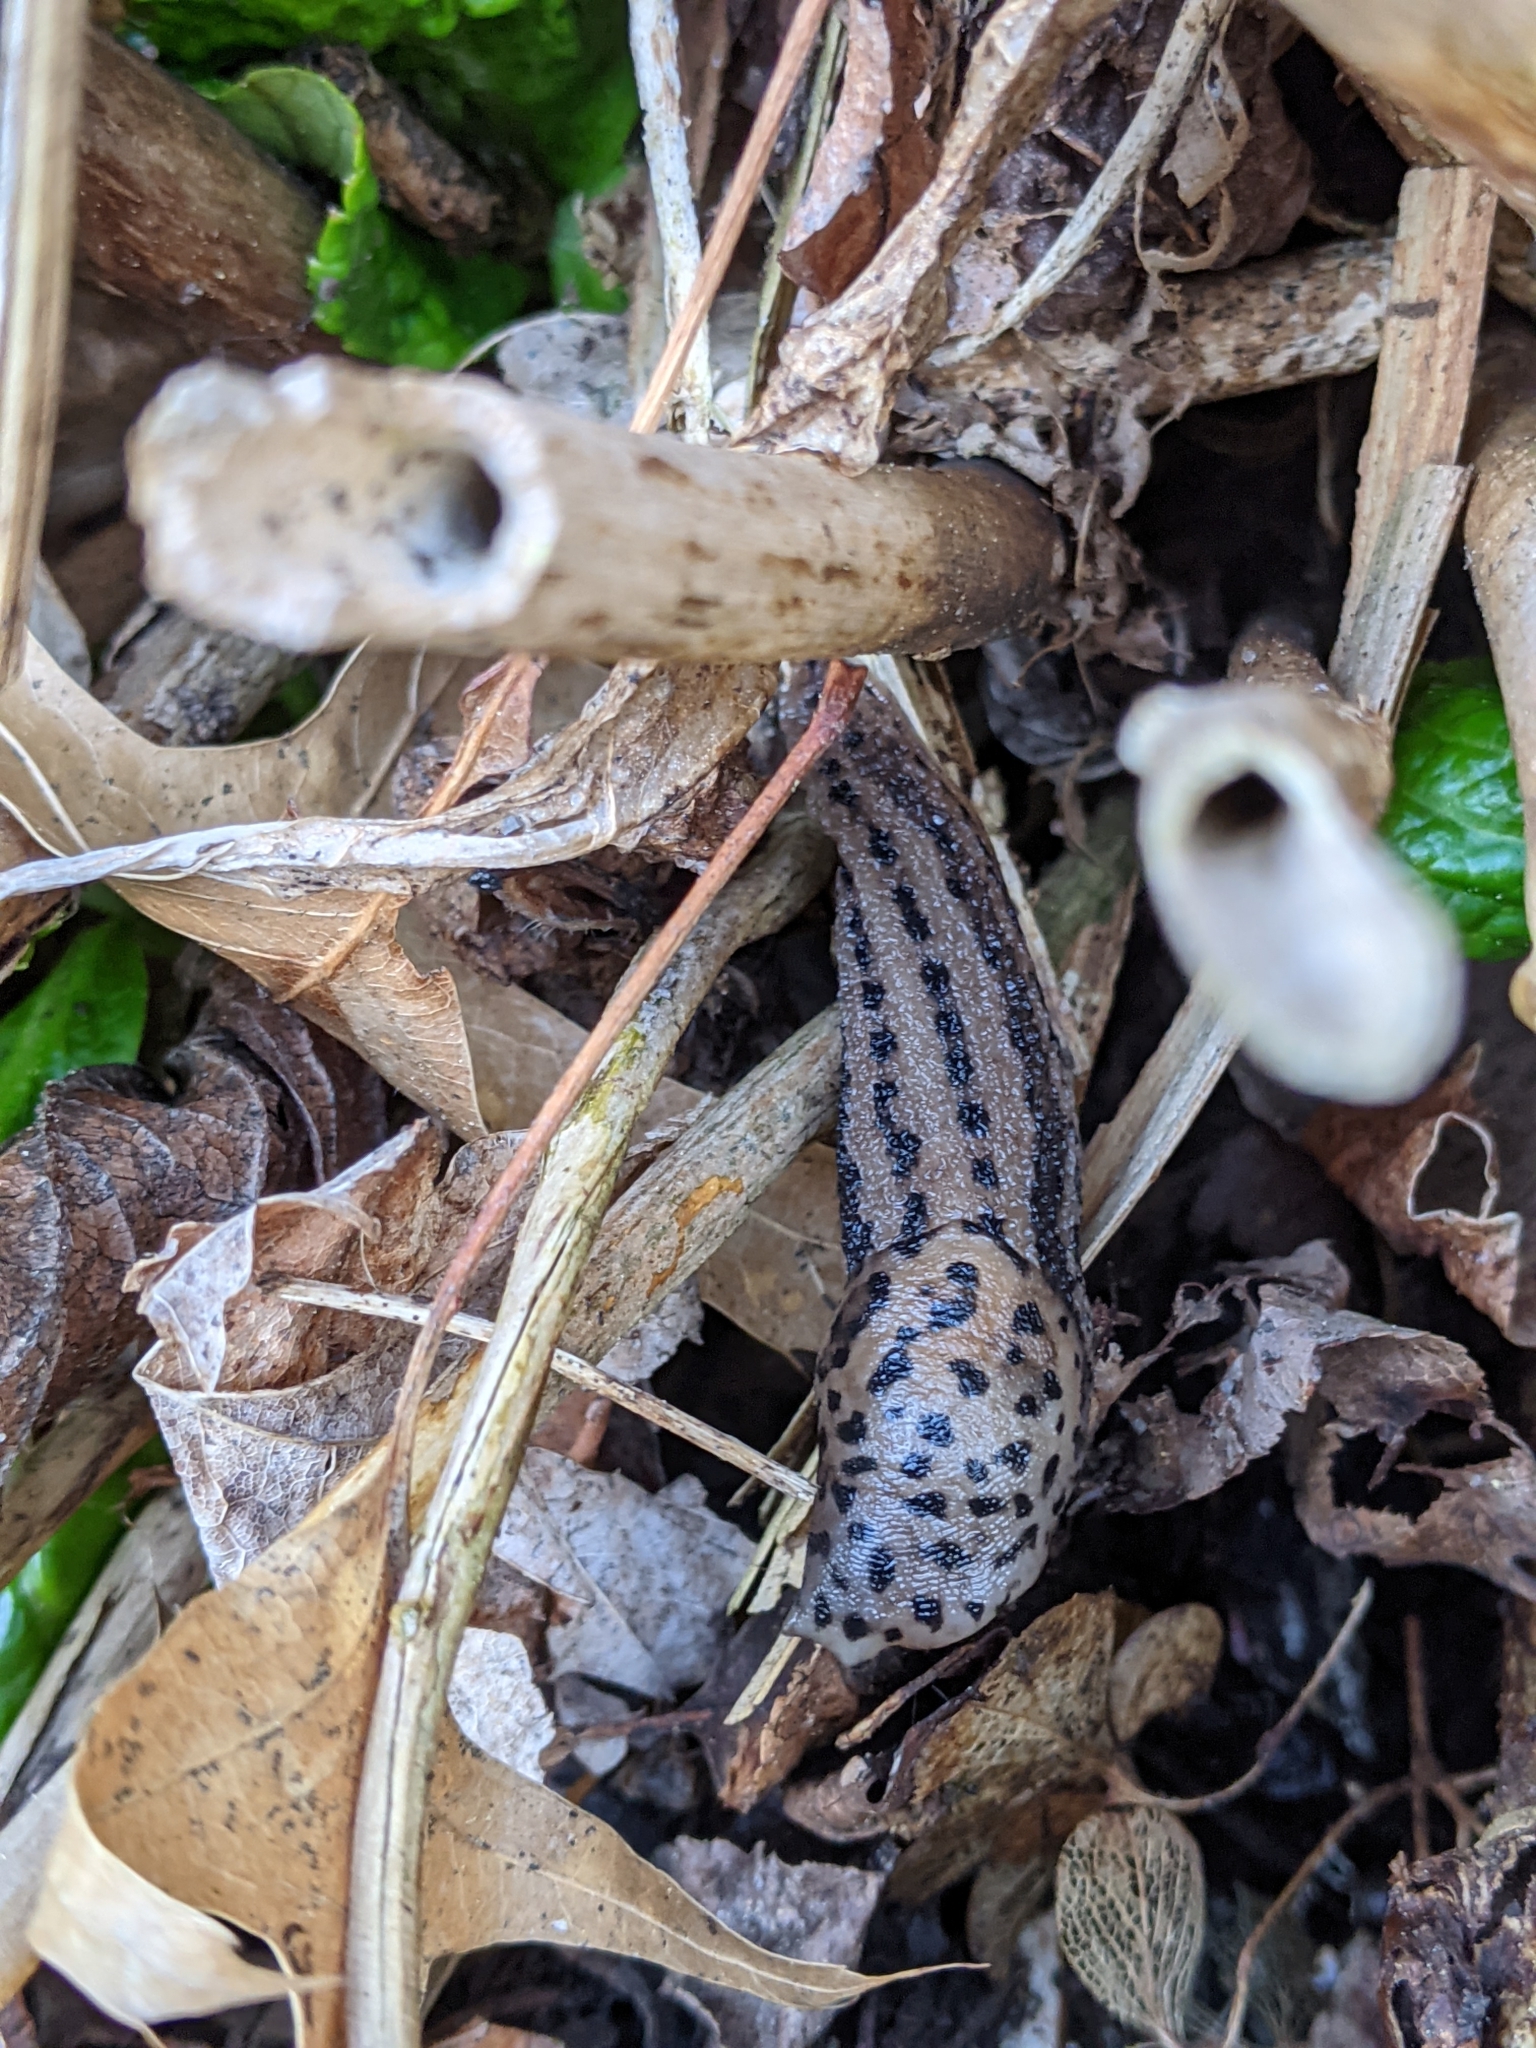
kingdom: Animalia
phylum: Mollusca
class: Gastropoda
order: Stylommatophora
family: Limacidae
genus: Limax
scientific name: Limax maximus
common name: Great grey slug
